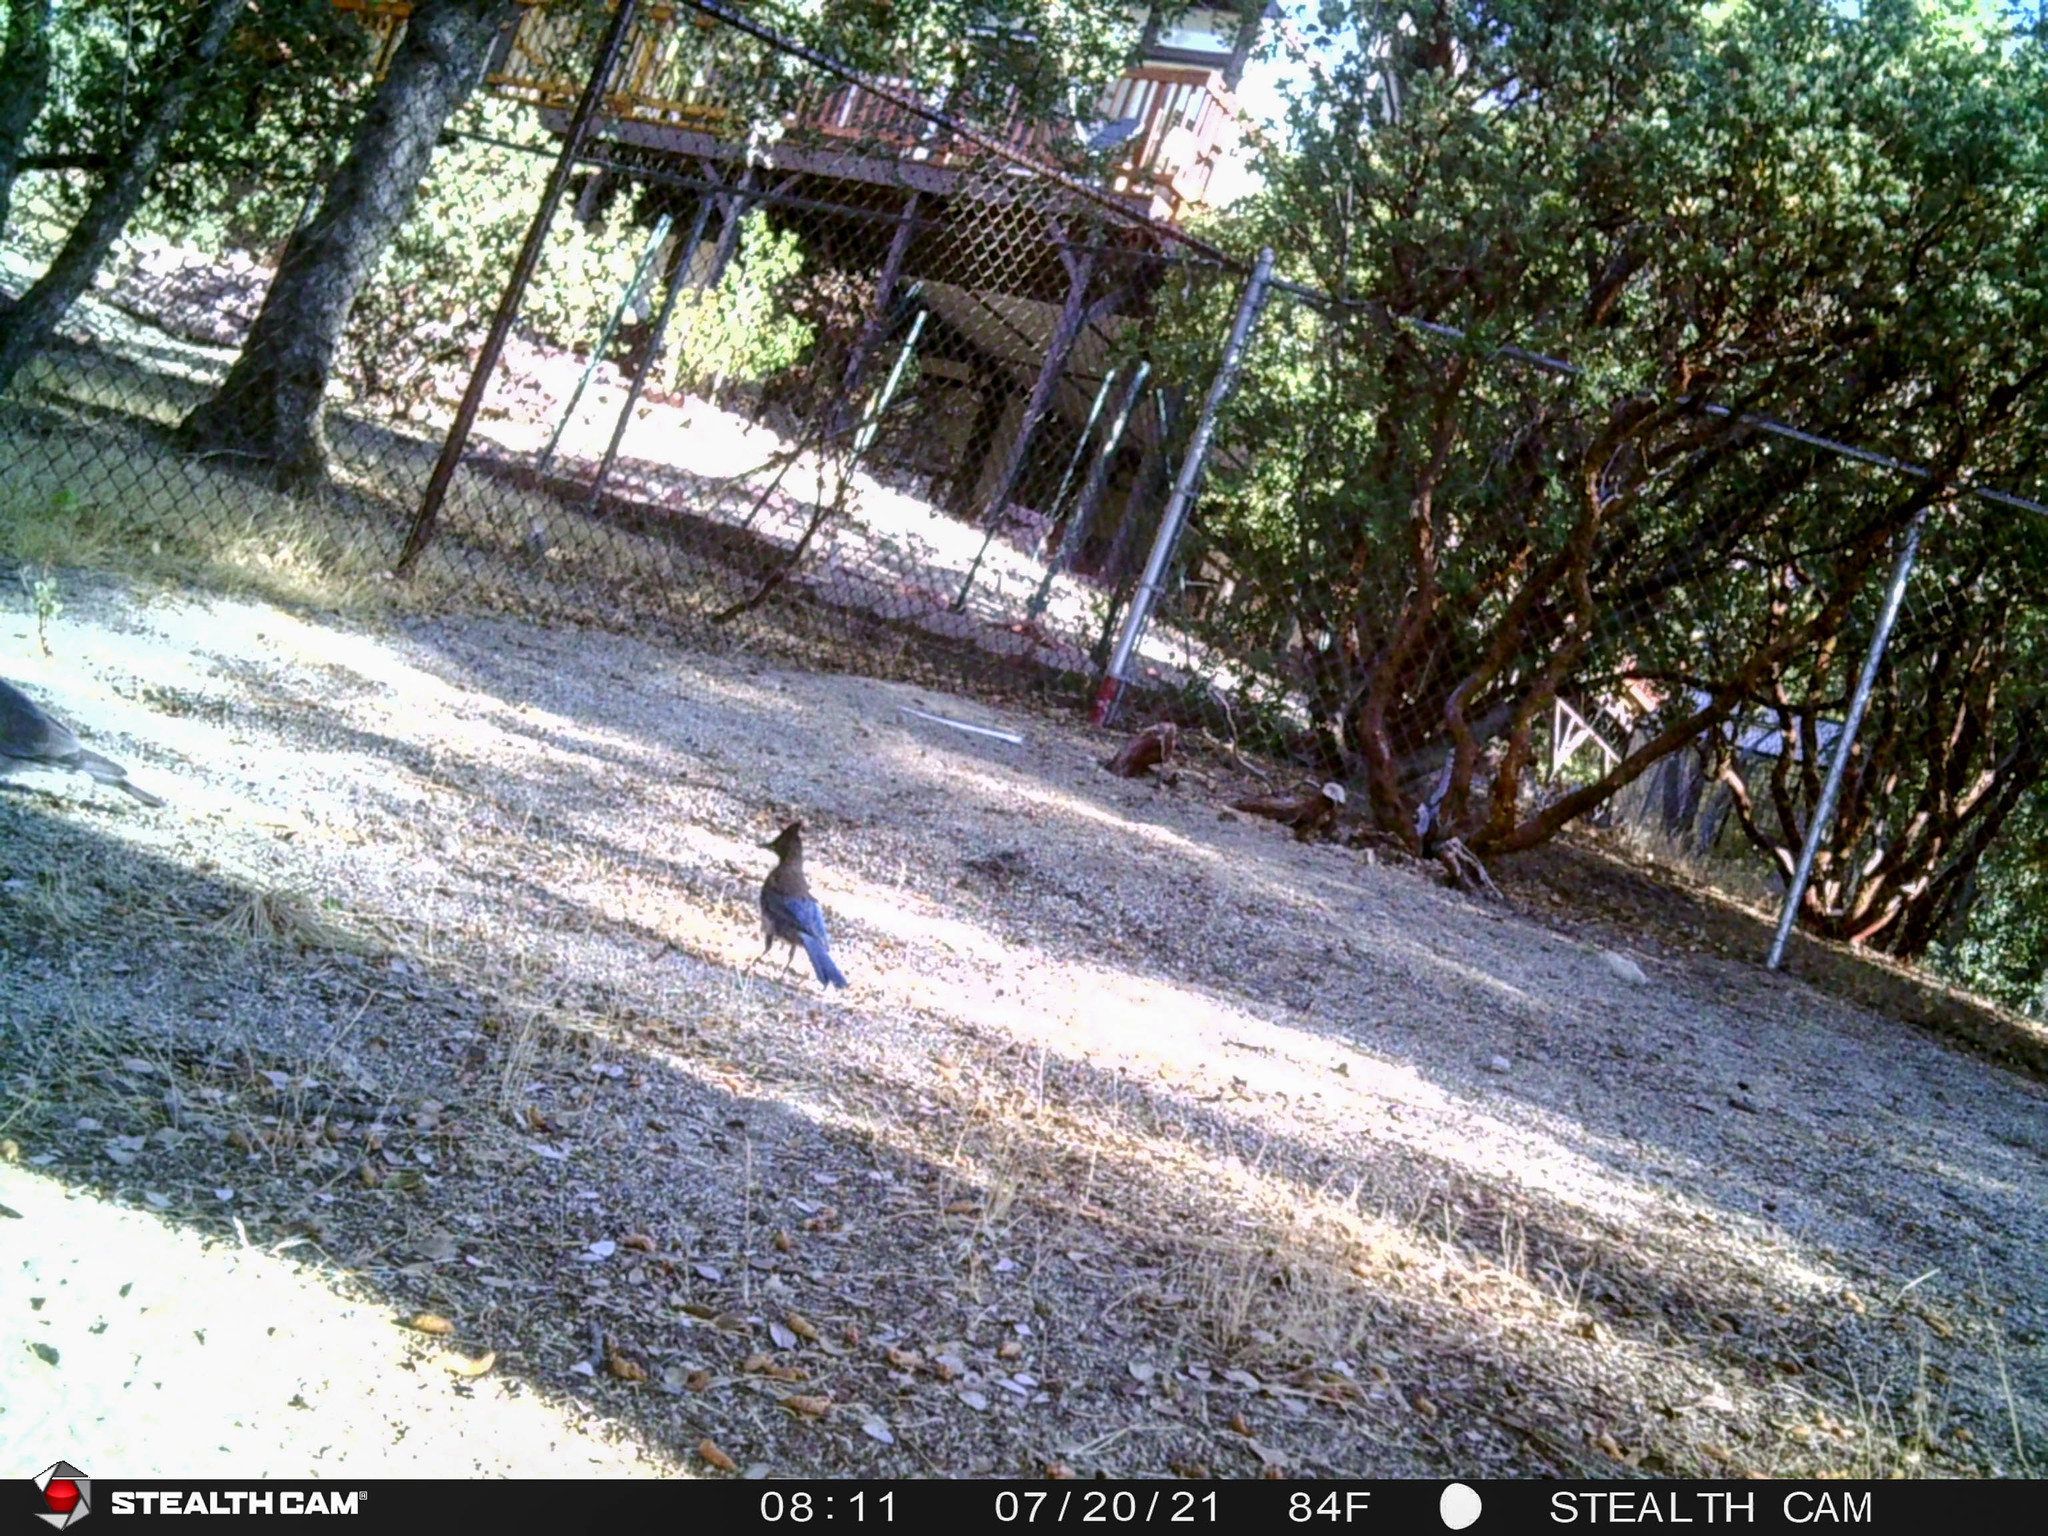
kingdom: Animalia
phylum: Chordata
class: Aves
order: Passeriformes
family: Corvidae
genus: Cyanocitta
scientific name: Cyanocitta stelleri
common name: Steller's jay
